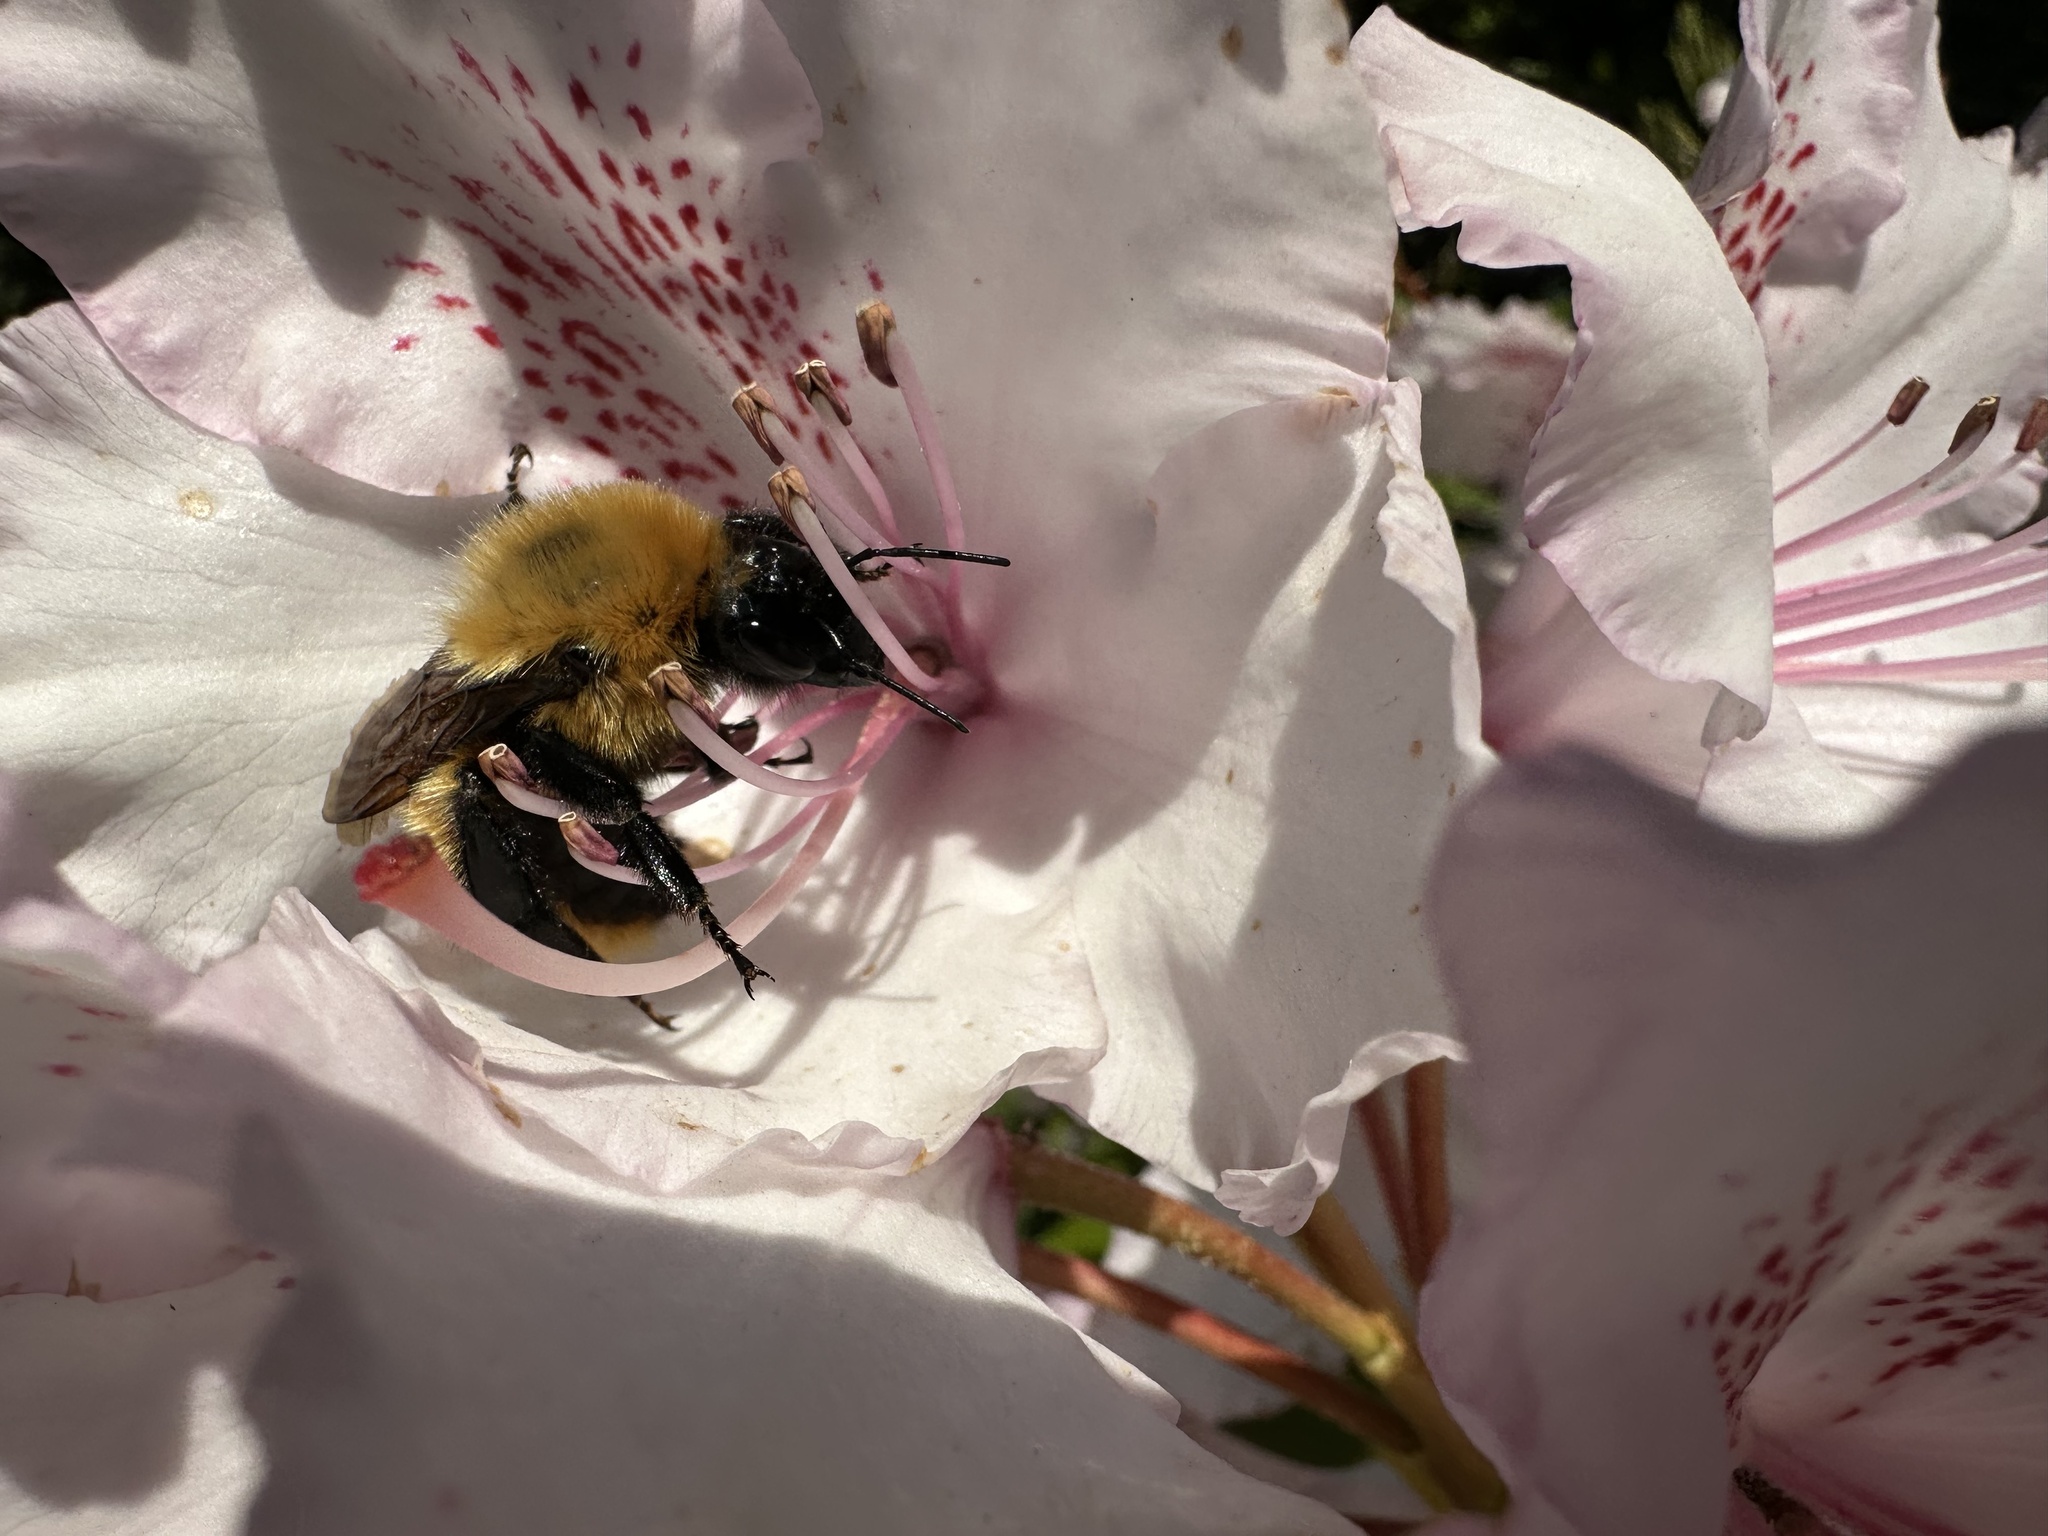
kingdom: Animalia
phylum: Arthropoda
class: Insecta
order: Hymenoptera
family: Apidae
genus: Bombus
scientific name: Bombus dahlbomii
